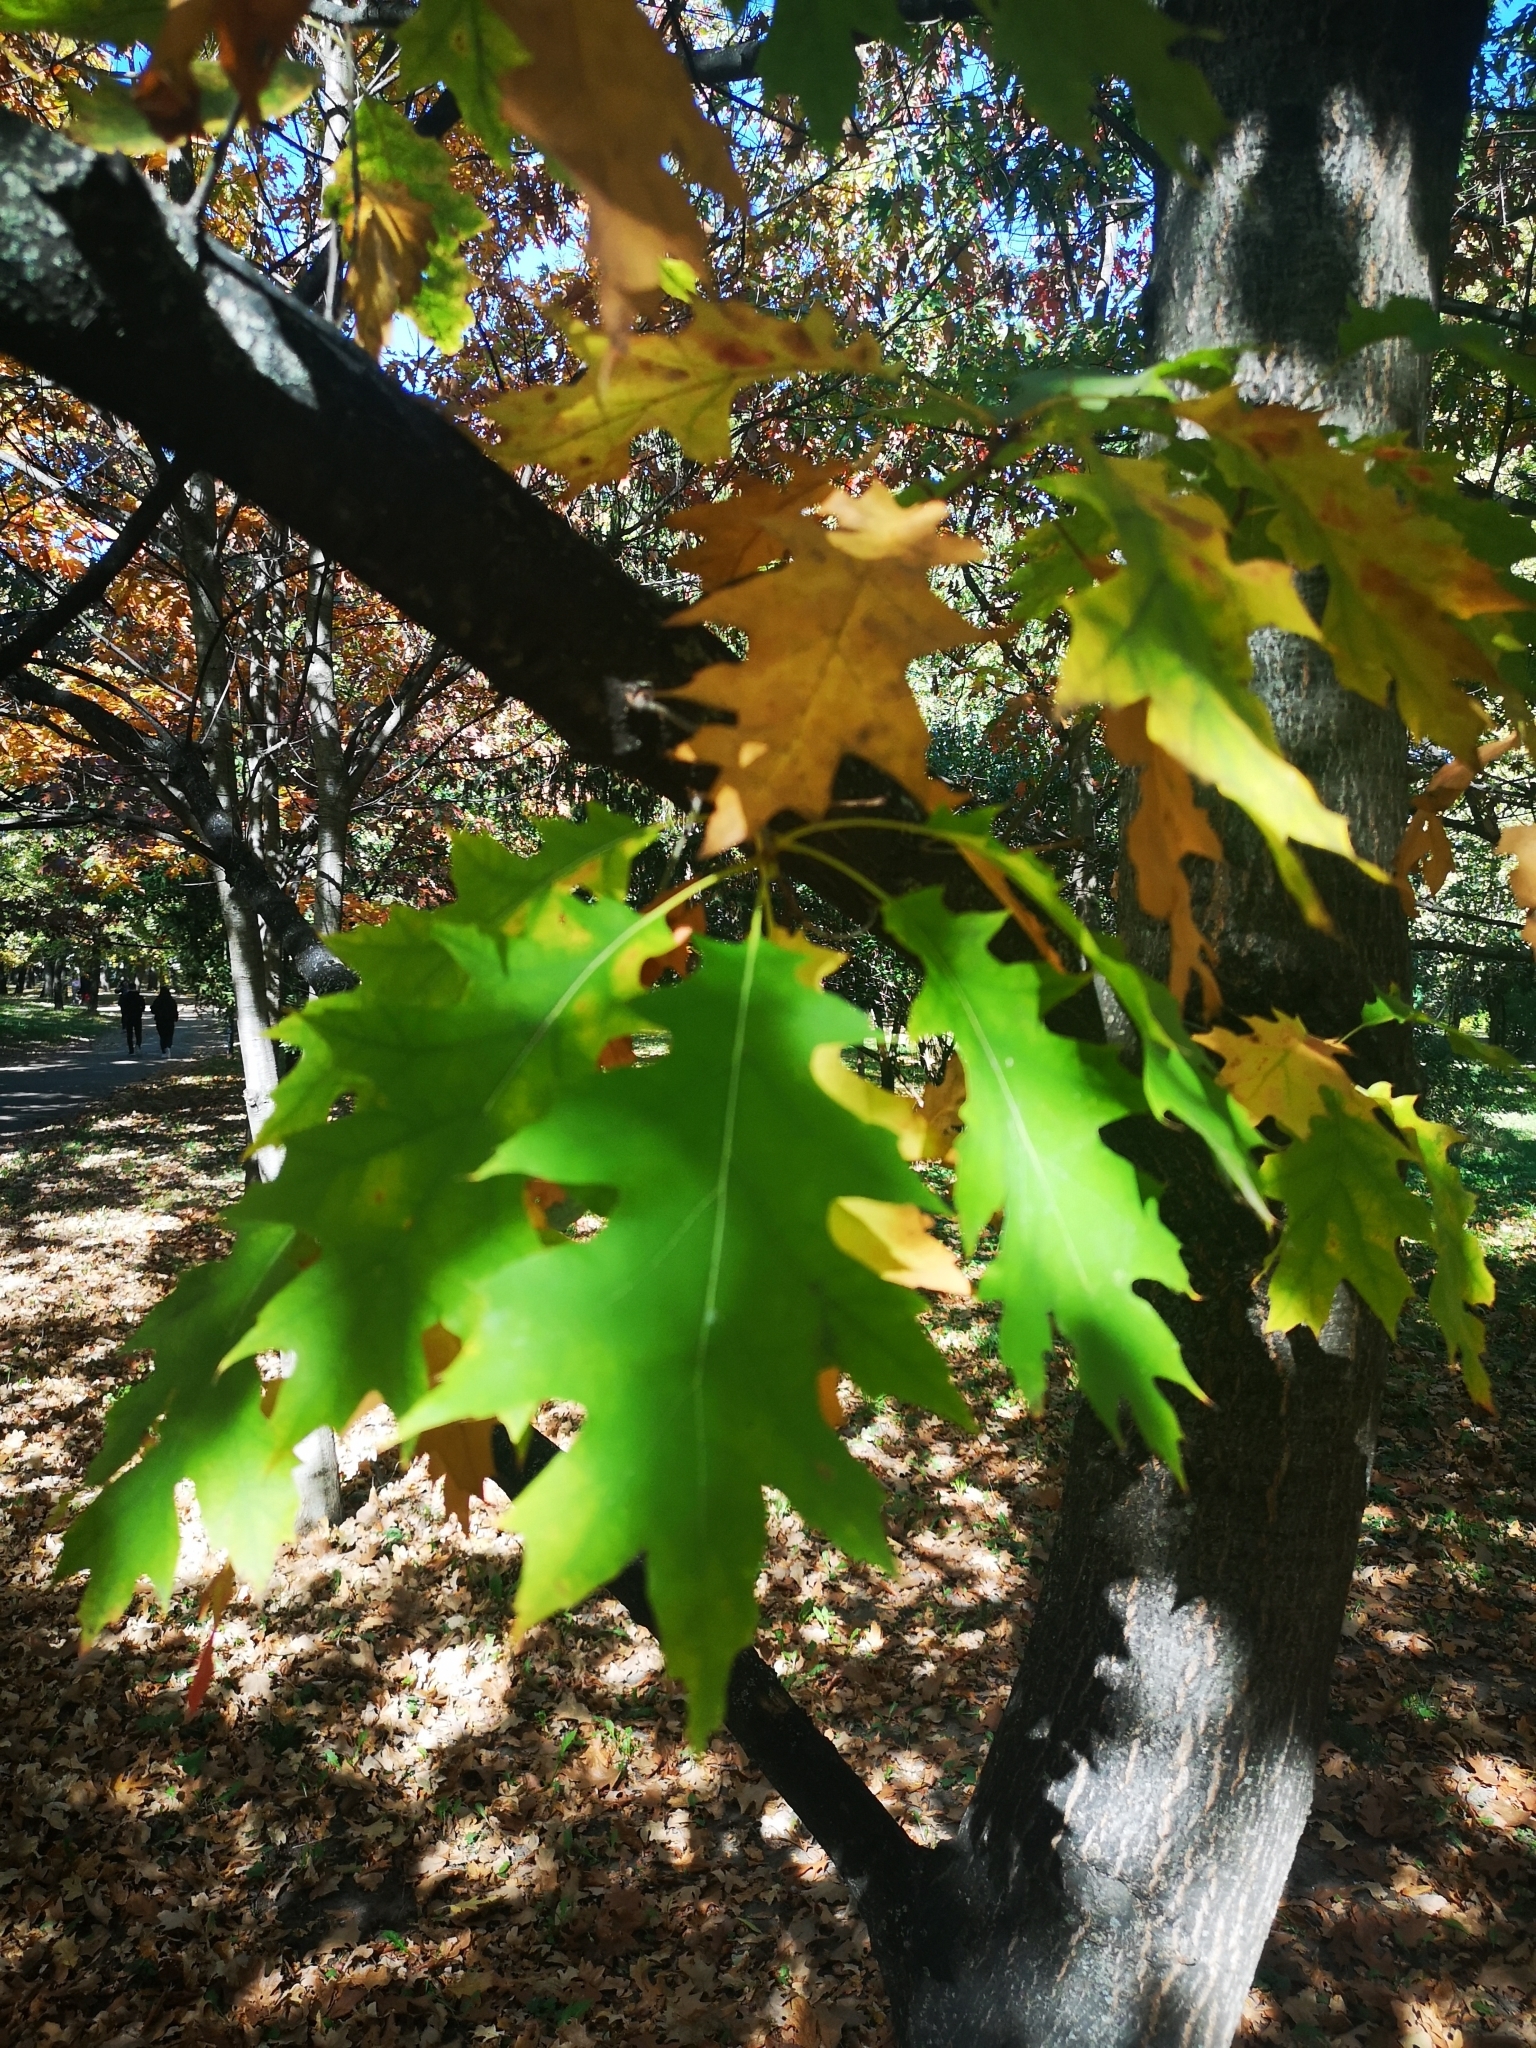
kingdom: Plantae
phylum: Tracheophyta
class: Magnoliopsida
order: Fagales
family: Fagaceae
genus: Quercus
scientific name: Quercus rubra
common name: Red oak
